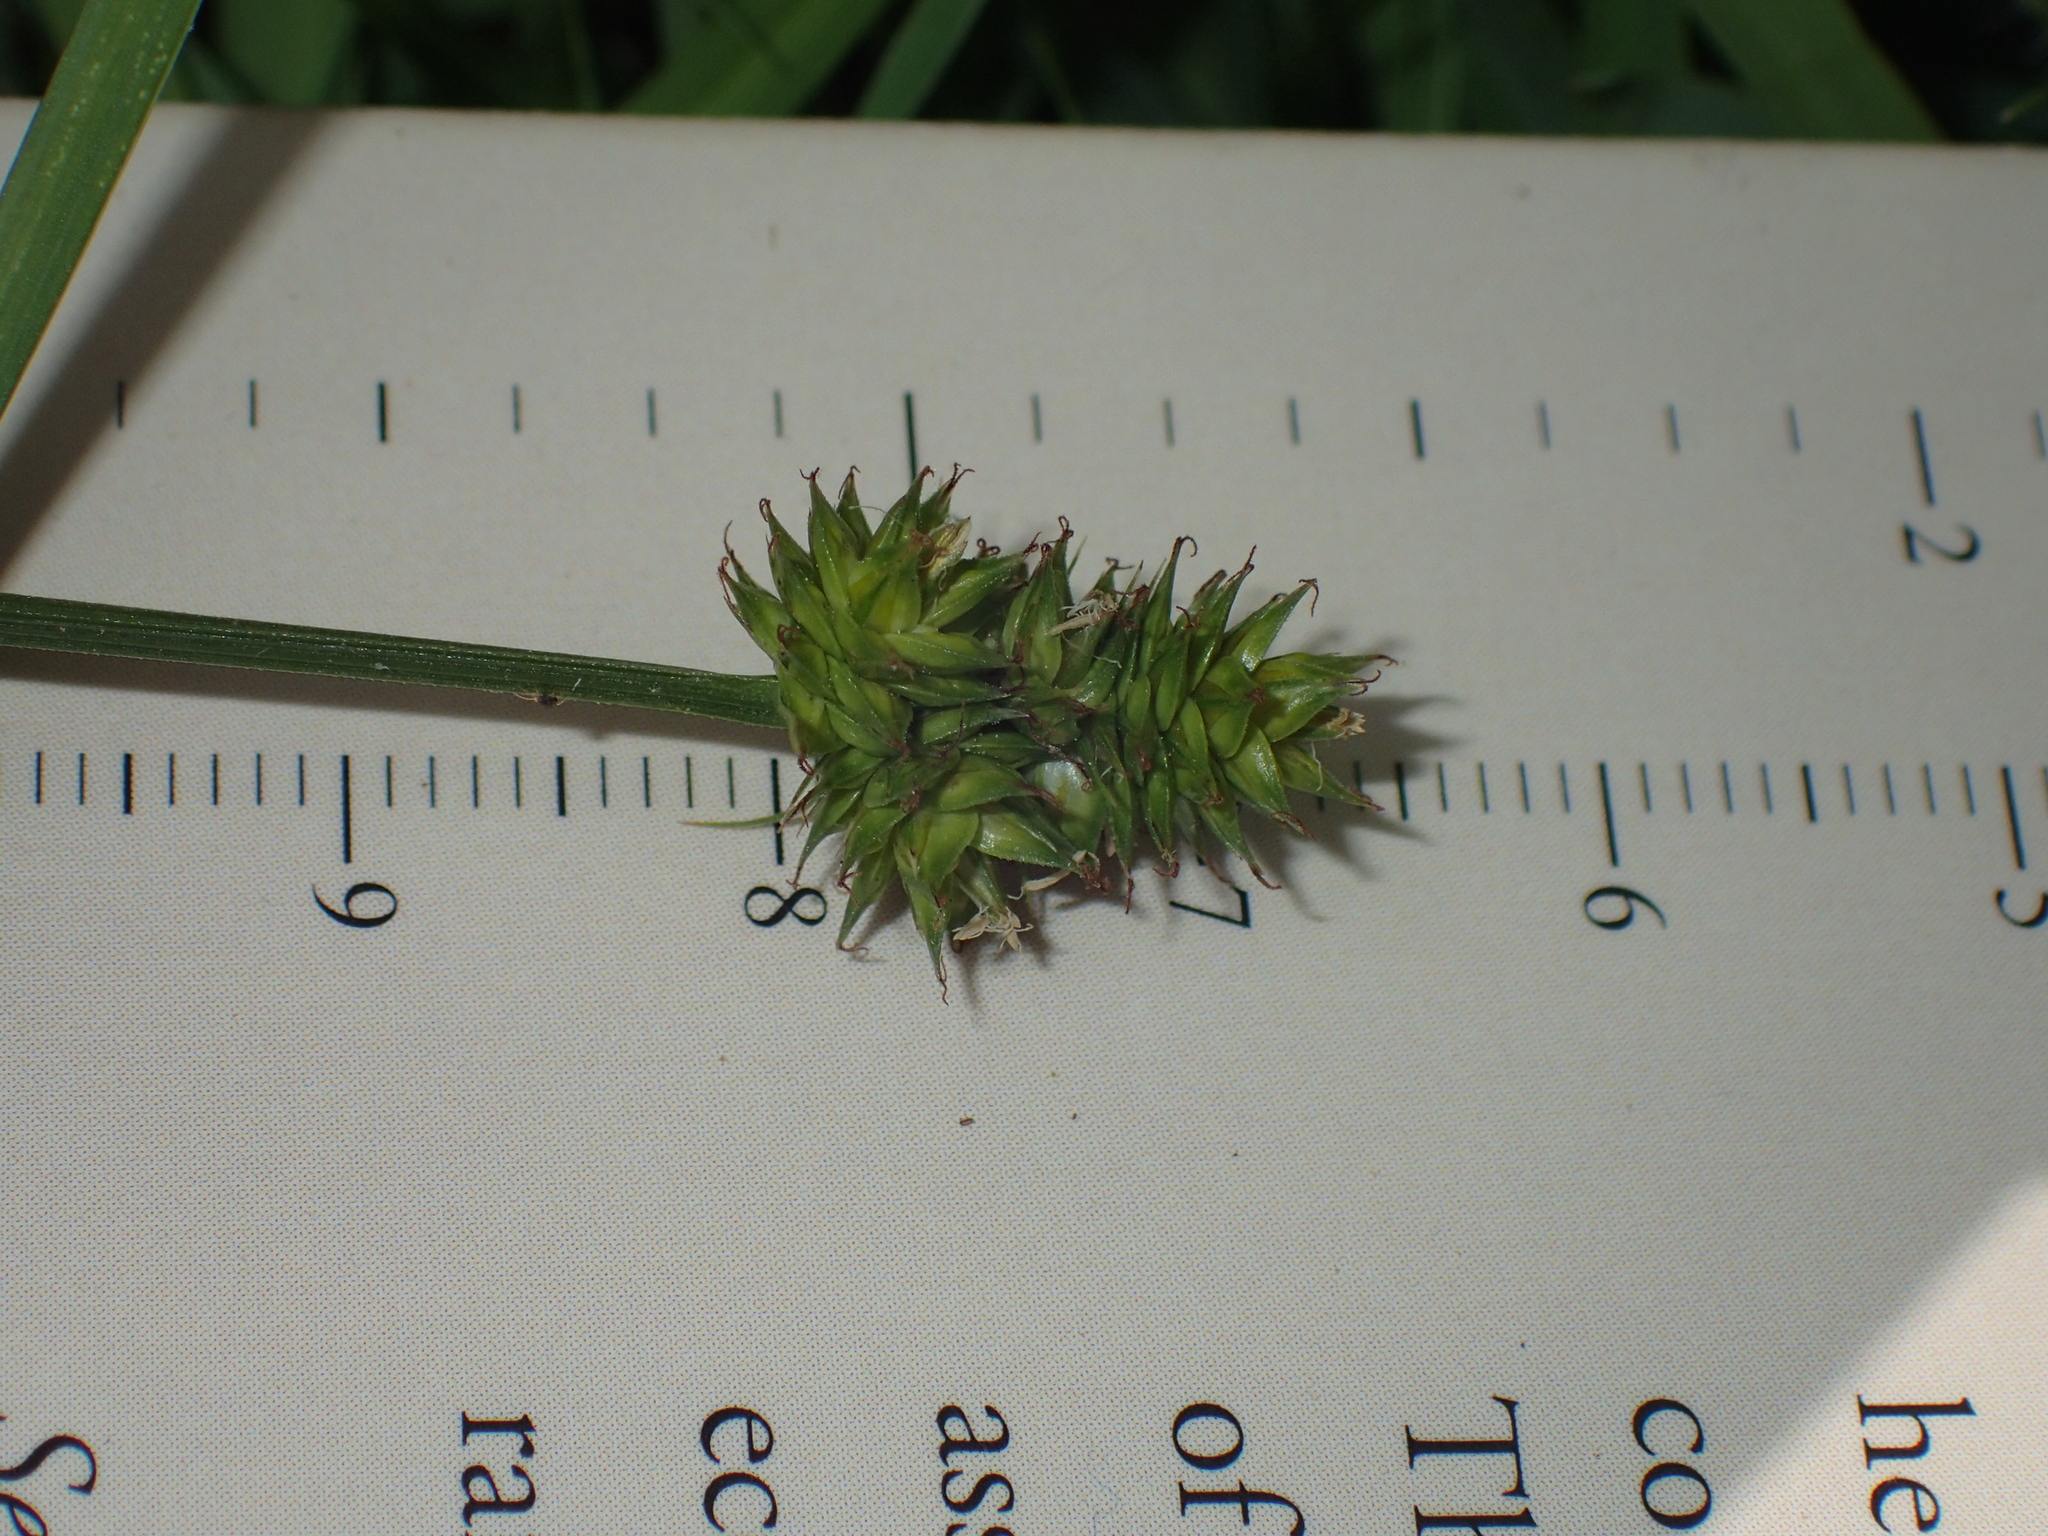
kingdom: Plantae
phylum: Tracheophyta
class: Liliopsida
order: Poales
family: Cyperaceae
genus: Carex
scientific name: Carex muehlenbergii
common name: Muhlenberg's bracted sedge
